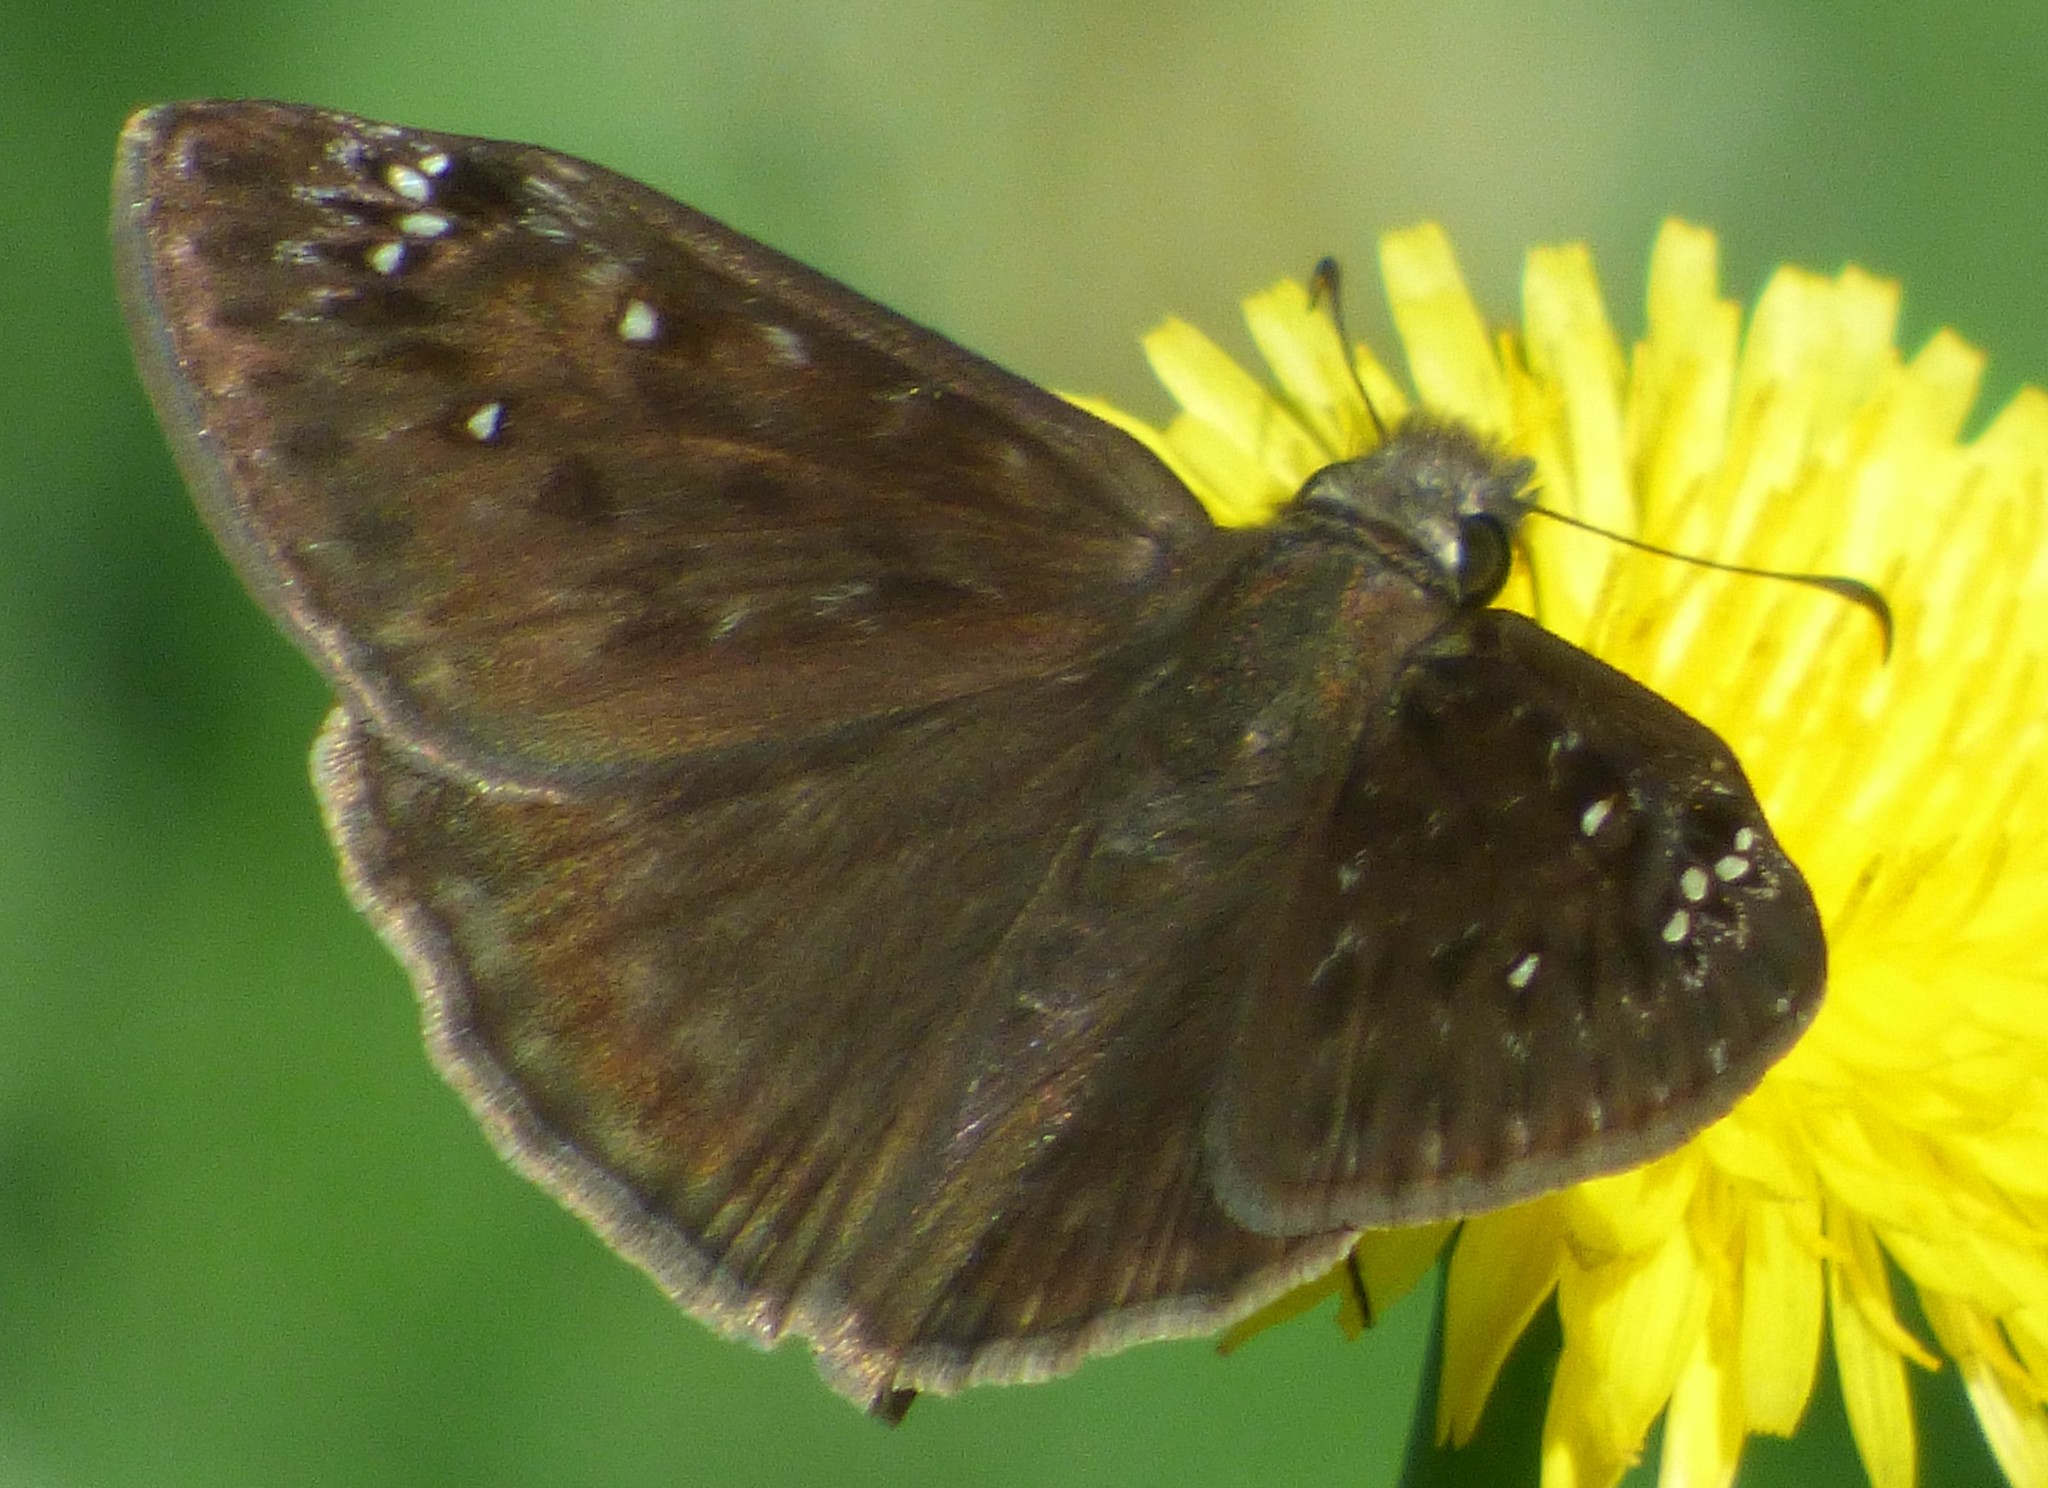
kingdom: Animalia
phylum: Arthropoda
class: Insecta
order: Lepidoptera
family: Hesperiidae
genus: Erynnis
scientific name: Erynnis horatius
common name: Horace's duskywing
